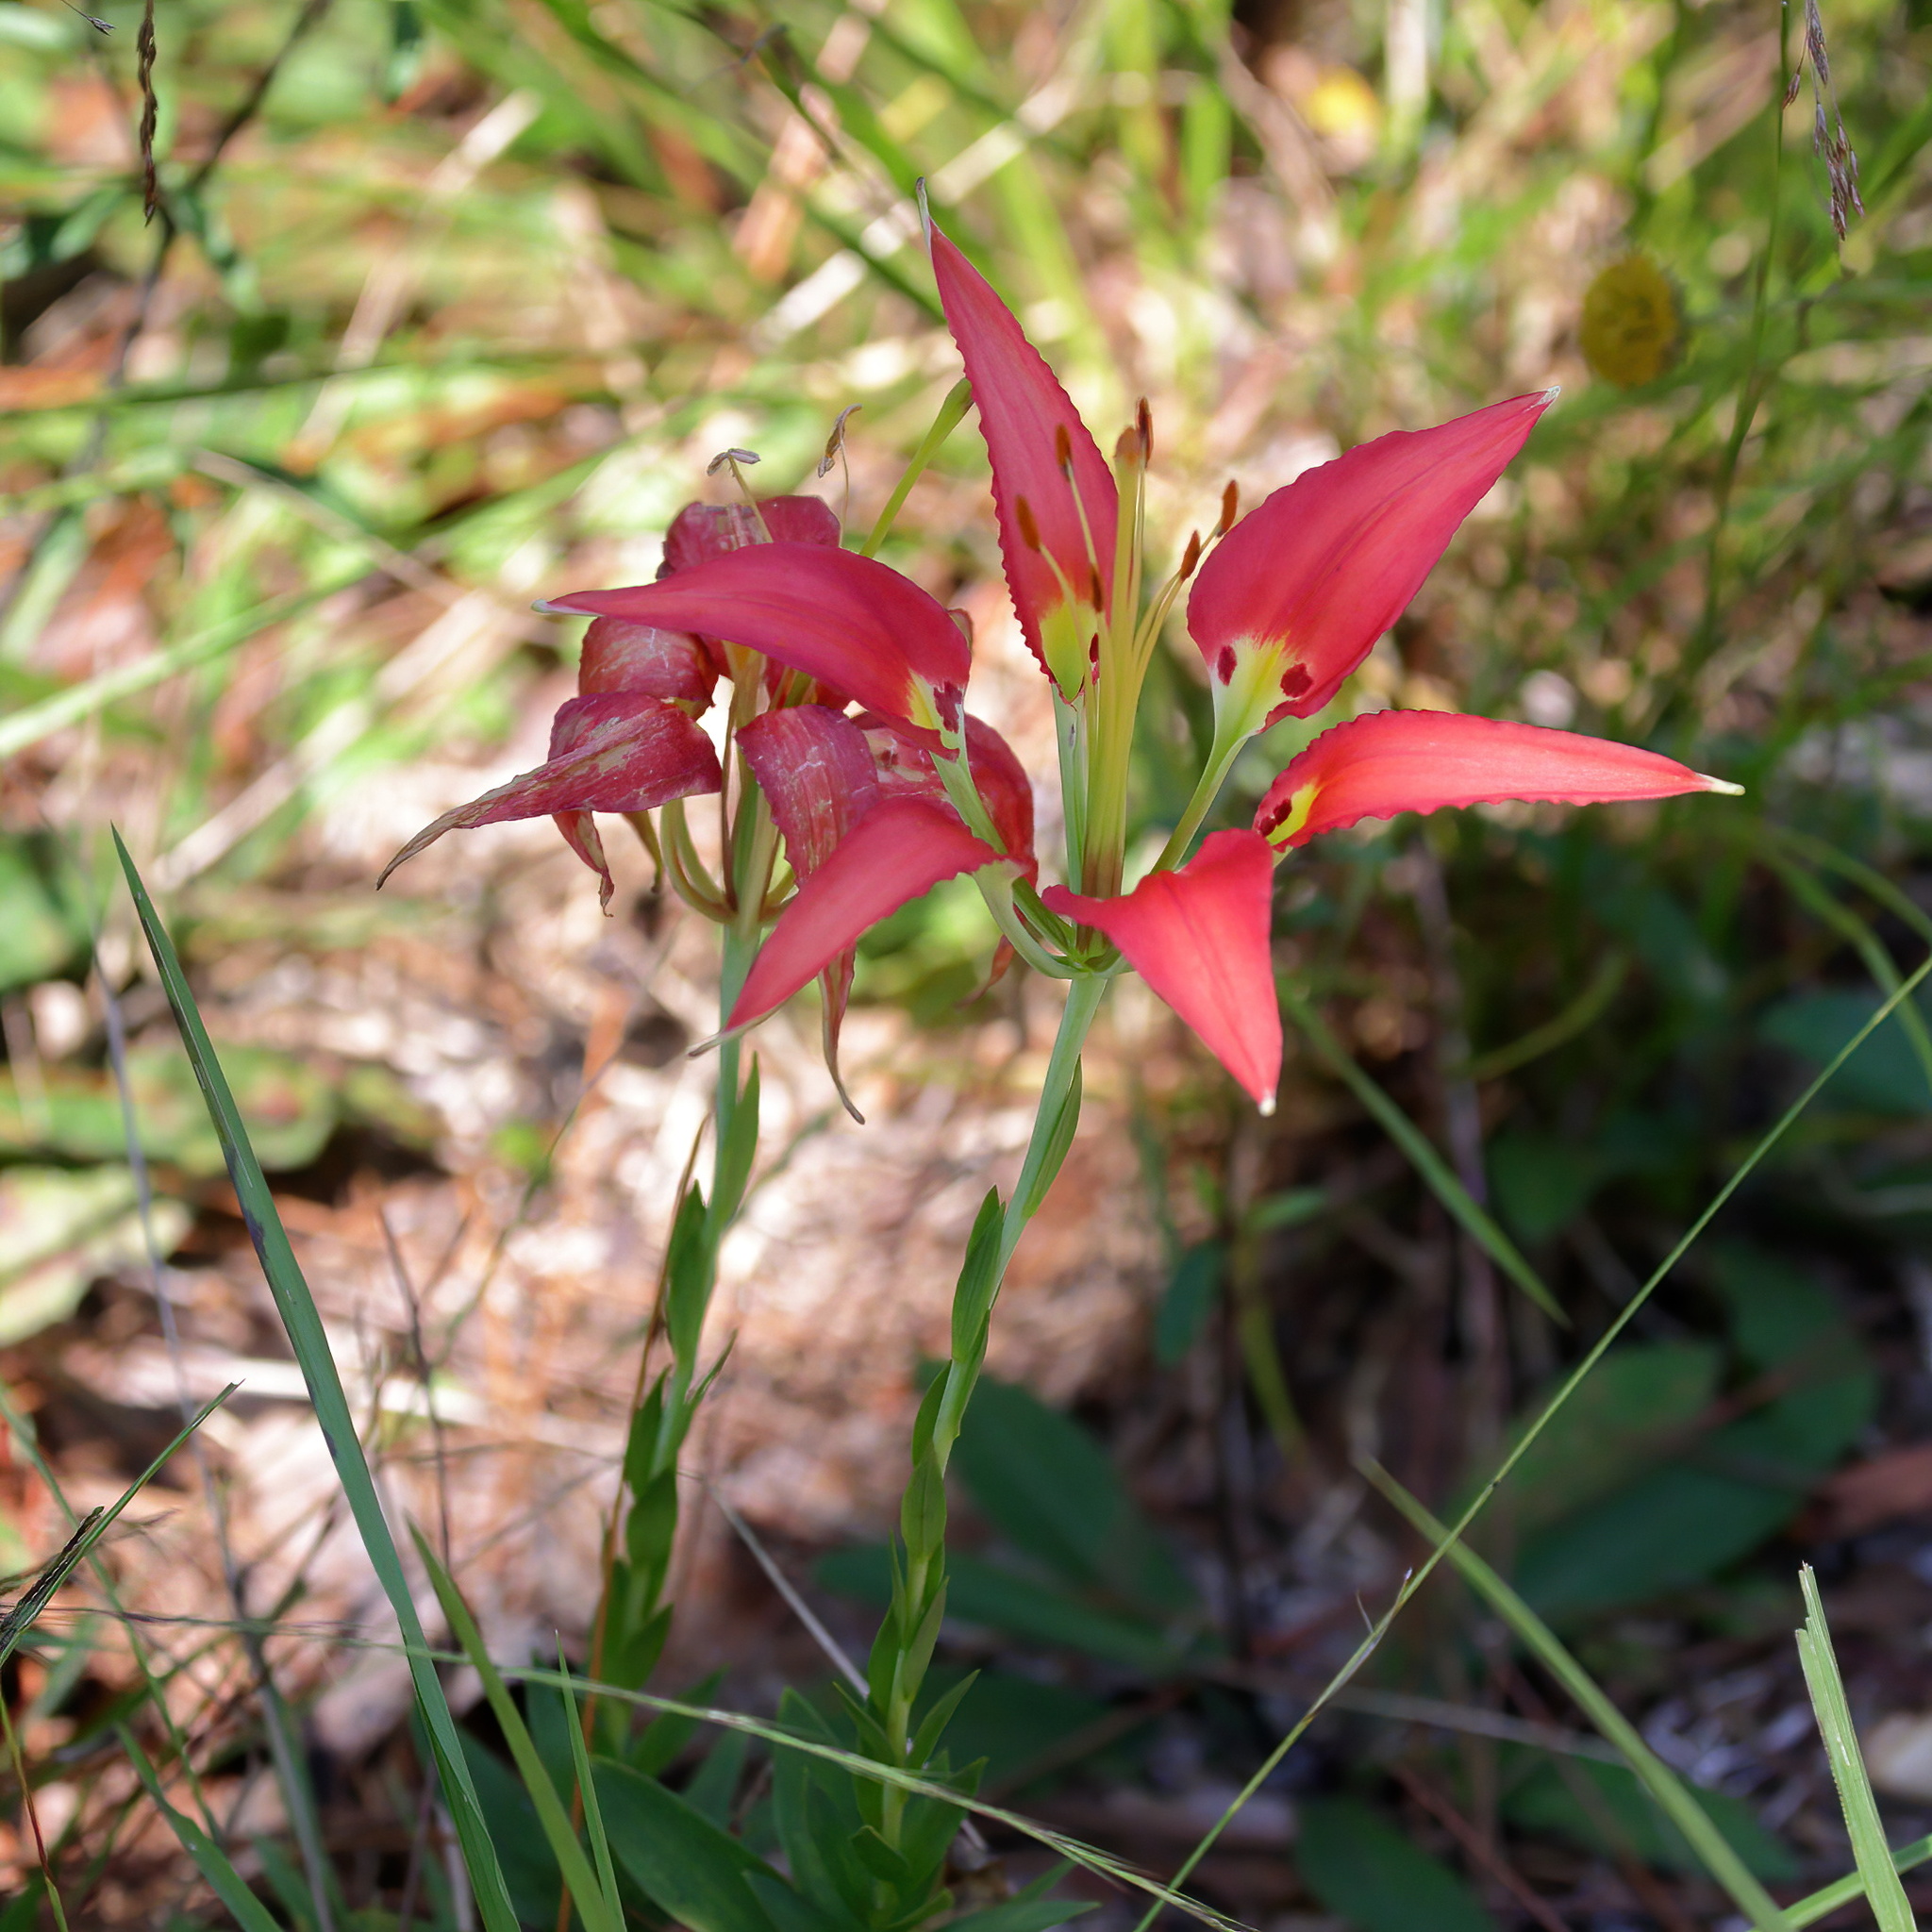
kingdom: Plantae
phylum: Tracheophyta
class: Liliopsida
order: Liliales
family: Liliaceae
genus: Lilium
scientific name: Lilium catesbaei
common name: Catesby's lily
